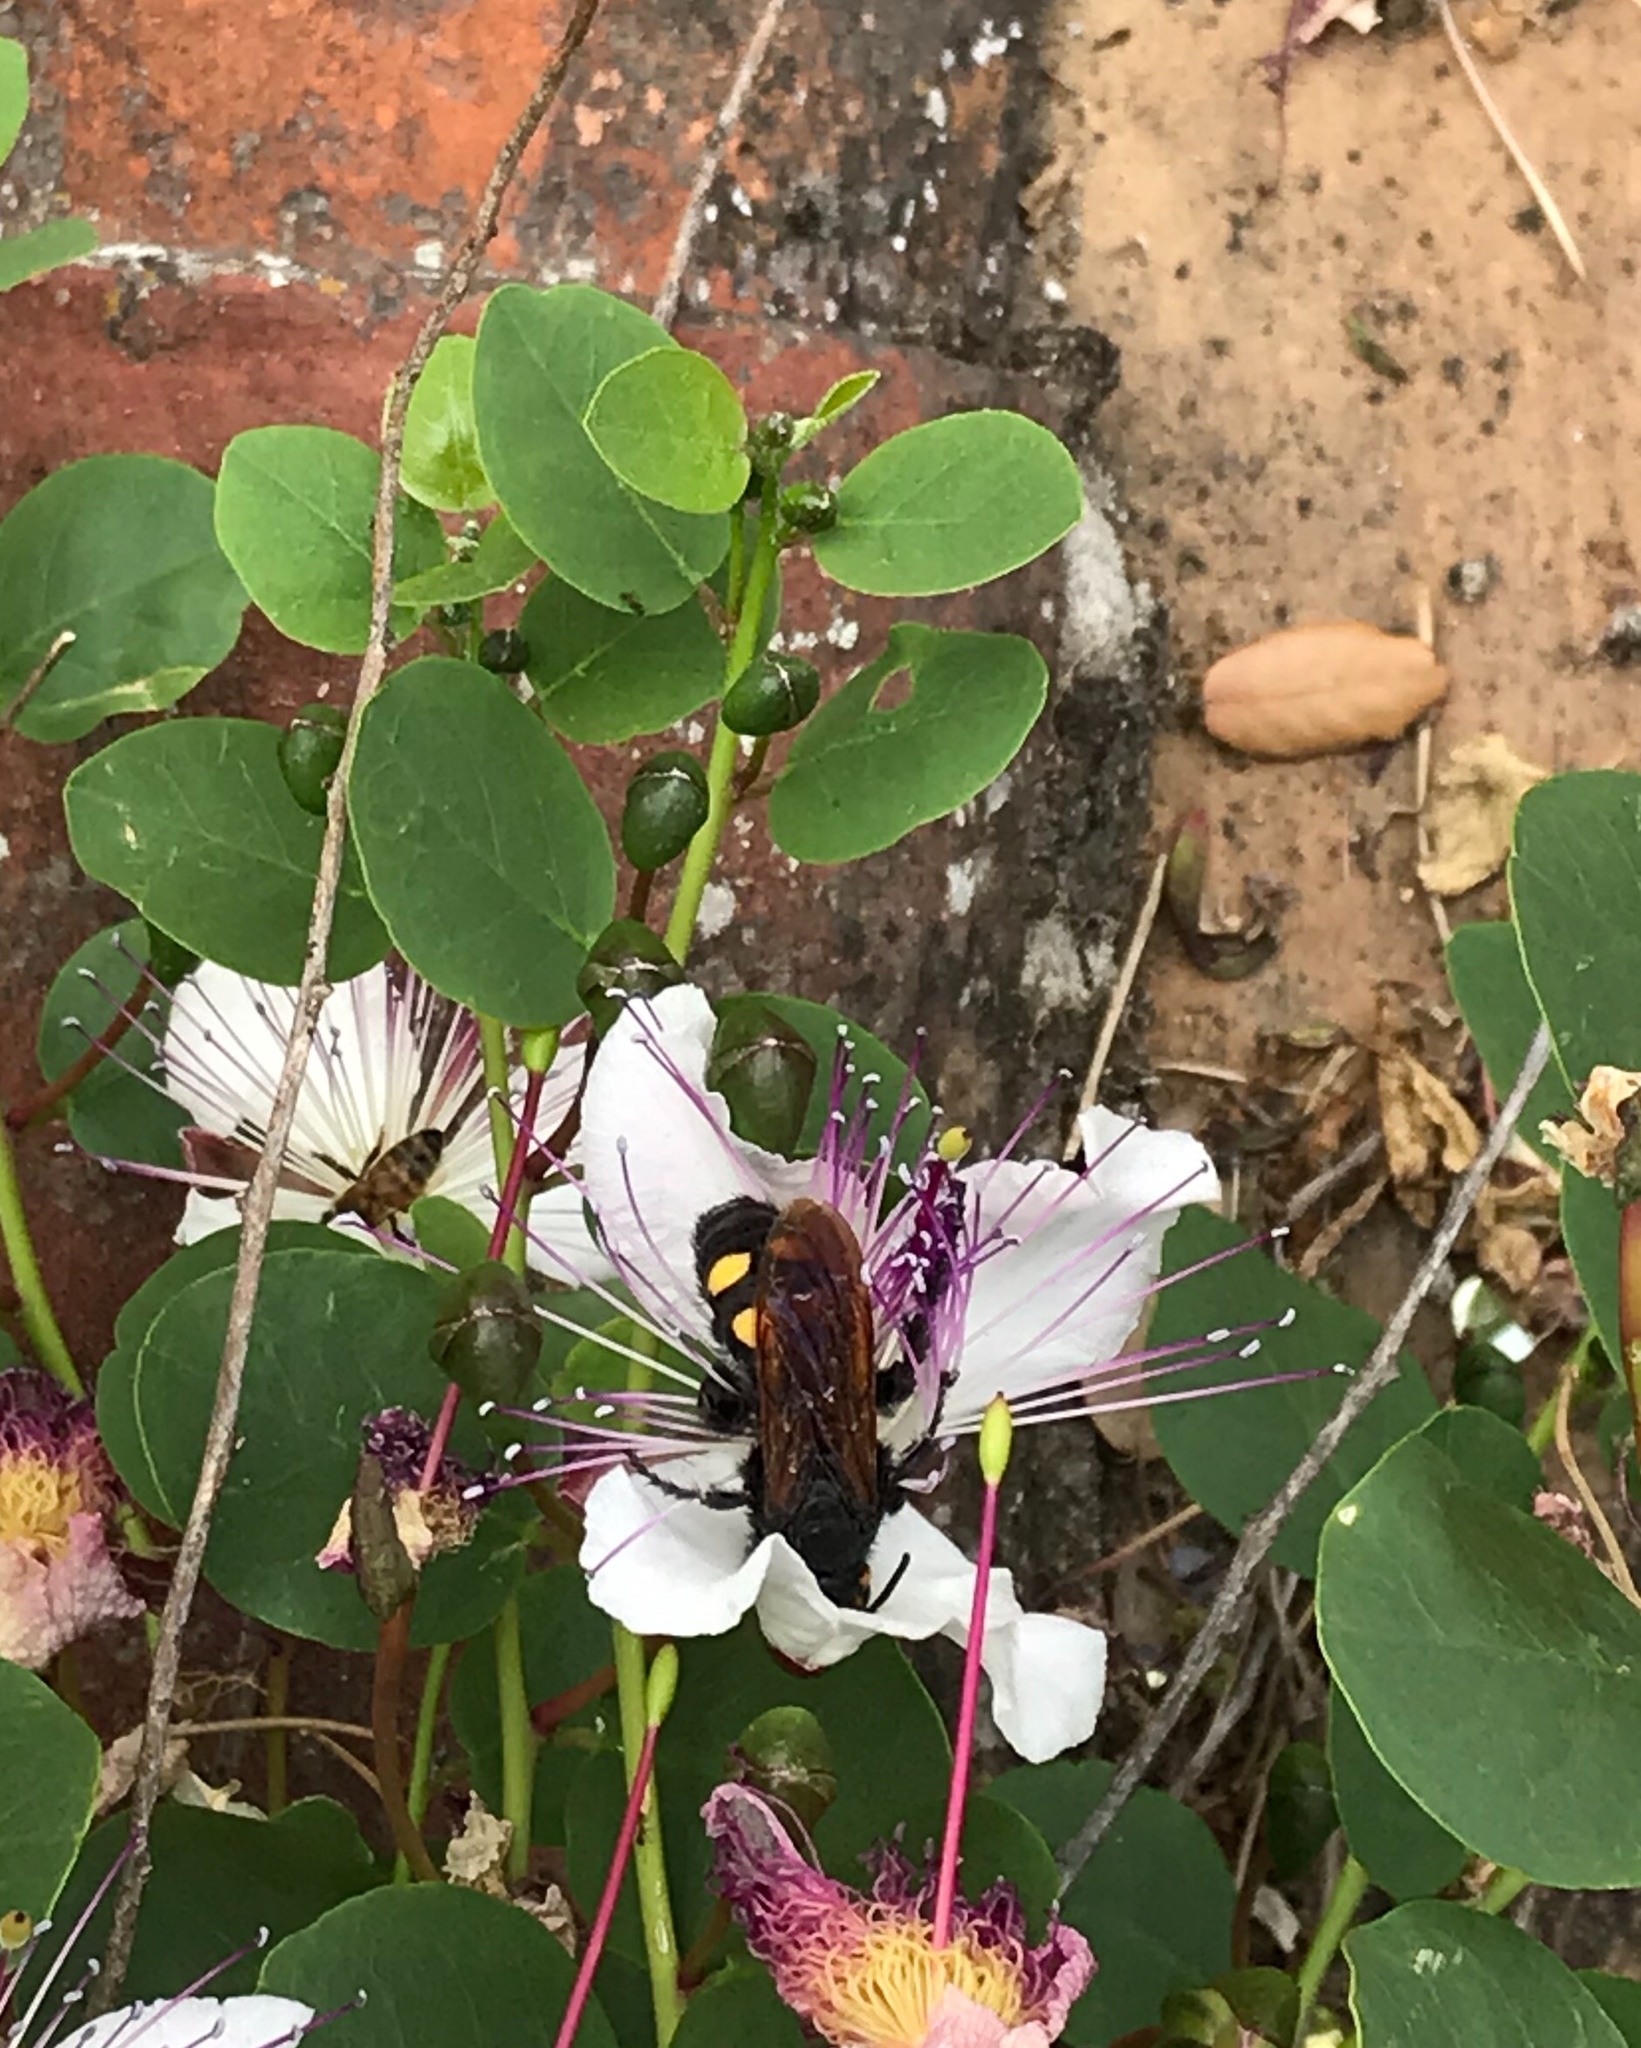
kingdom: Animalia
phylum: Arthropoda
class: Insecta
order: Hymenoptera
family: Scoliidae
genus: Megascolia
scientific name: Megascolia maculata
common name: Mammoth wasp
